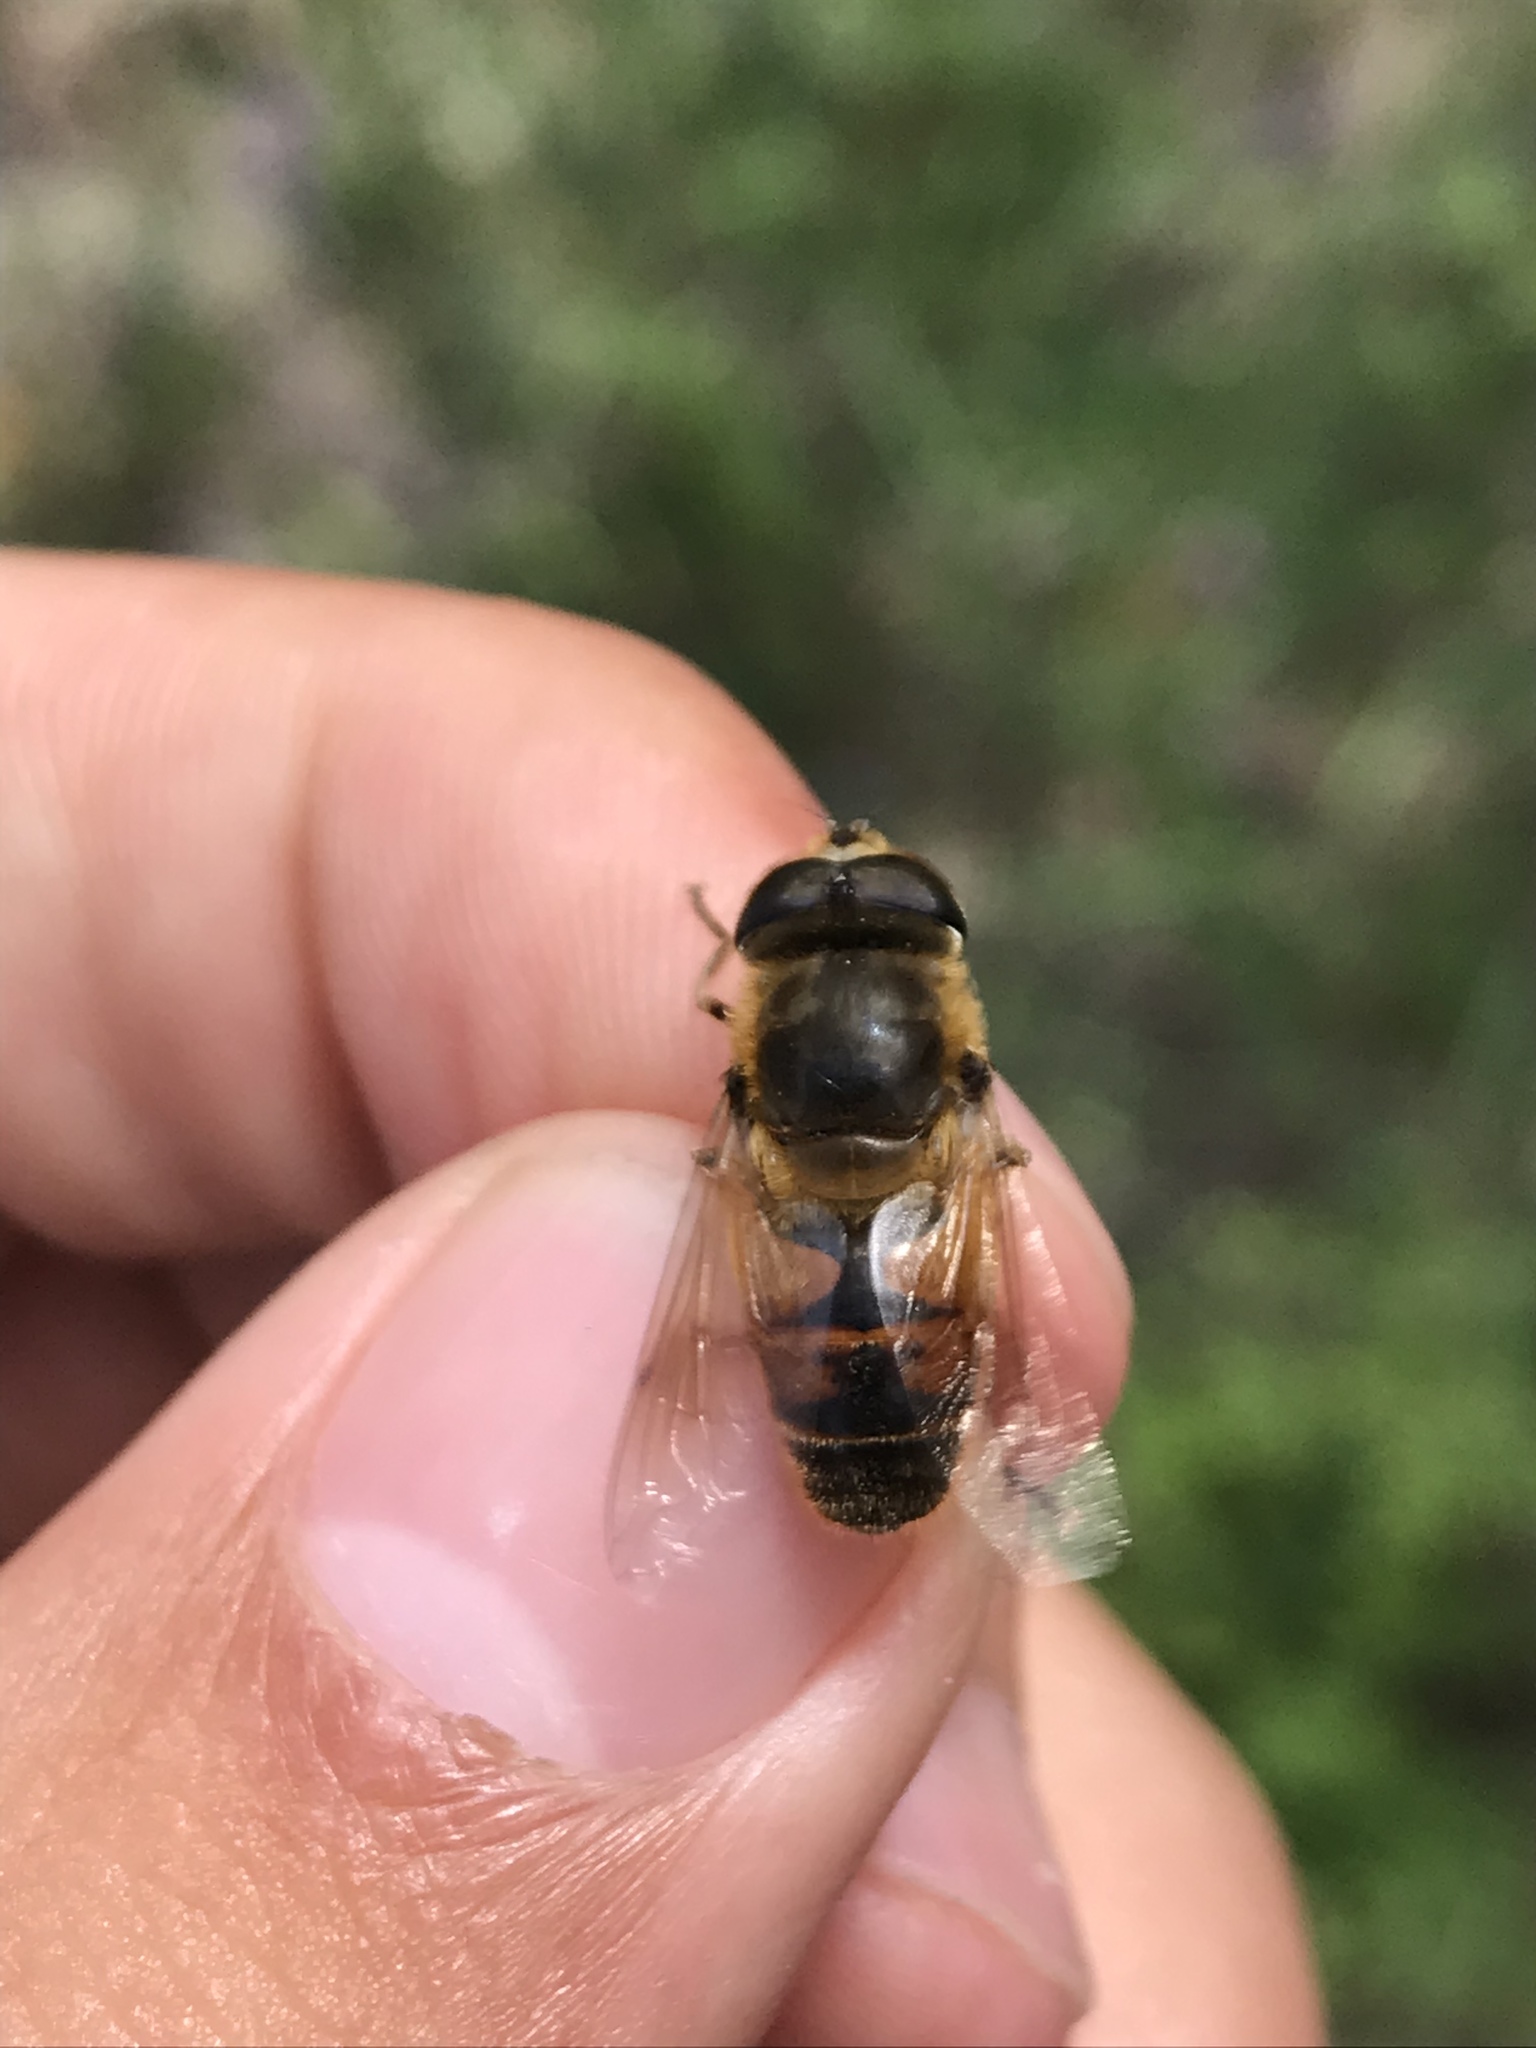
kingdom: Animalia
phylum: Arthropoda
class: Insecta
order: Diptera
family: Syrphidae
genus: Eristalis
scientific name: Eristalis tenax
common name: Drone fly
